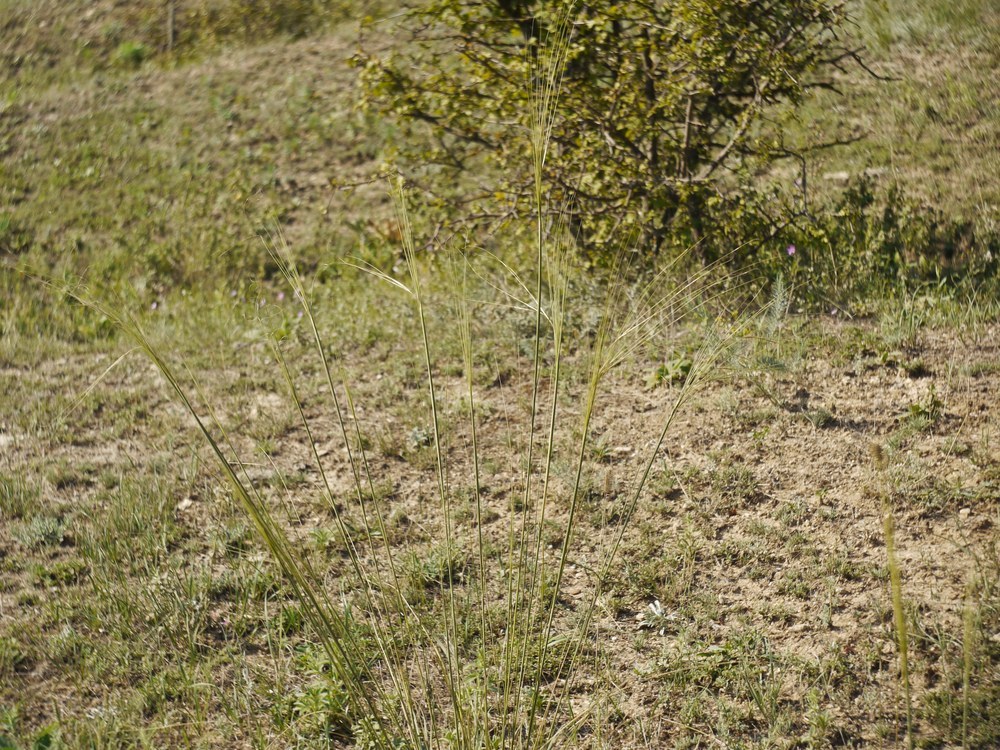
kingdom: Plantae
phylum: Tracheophyta
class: Liliopsida
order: Poales
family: Poaceae
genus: Stipa
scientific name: Stipa capillata
